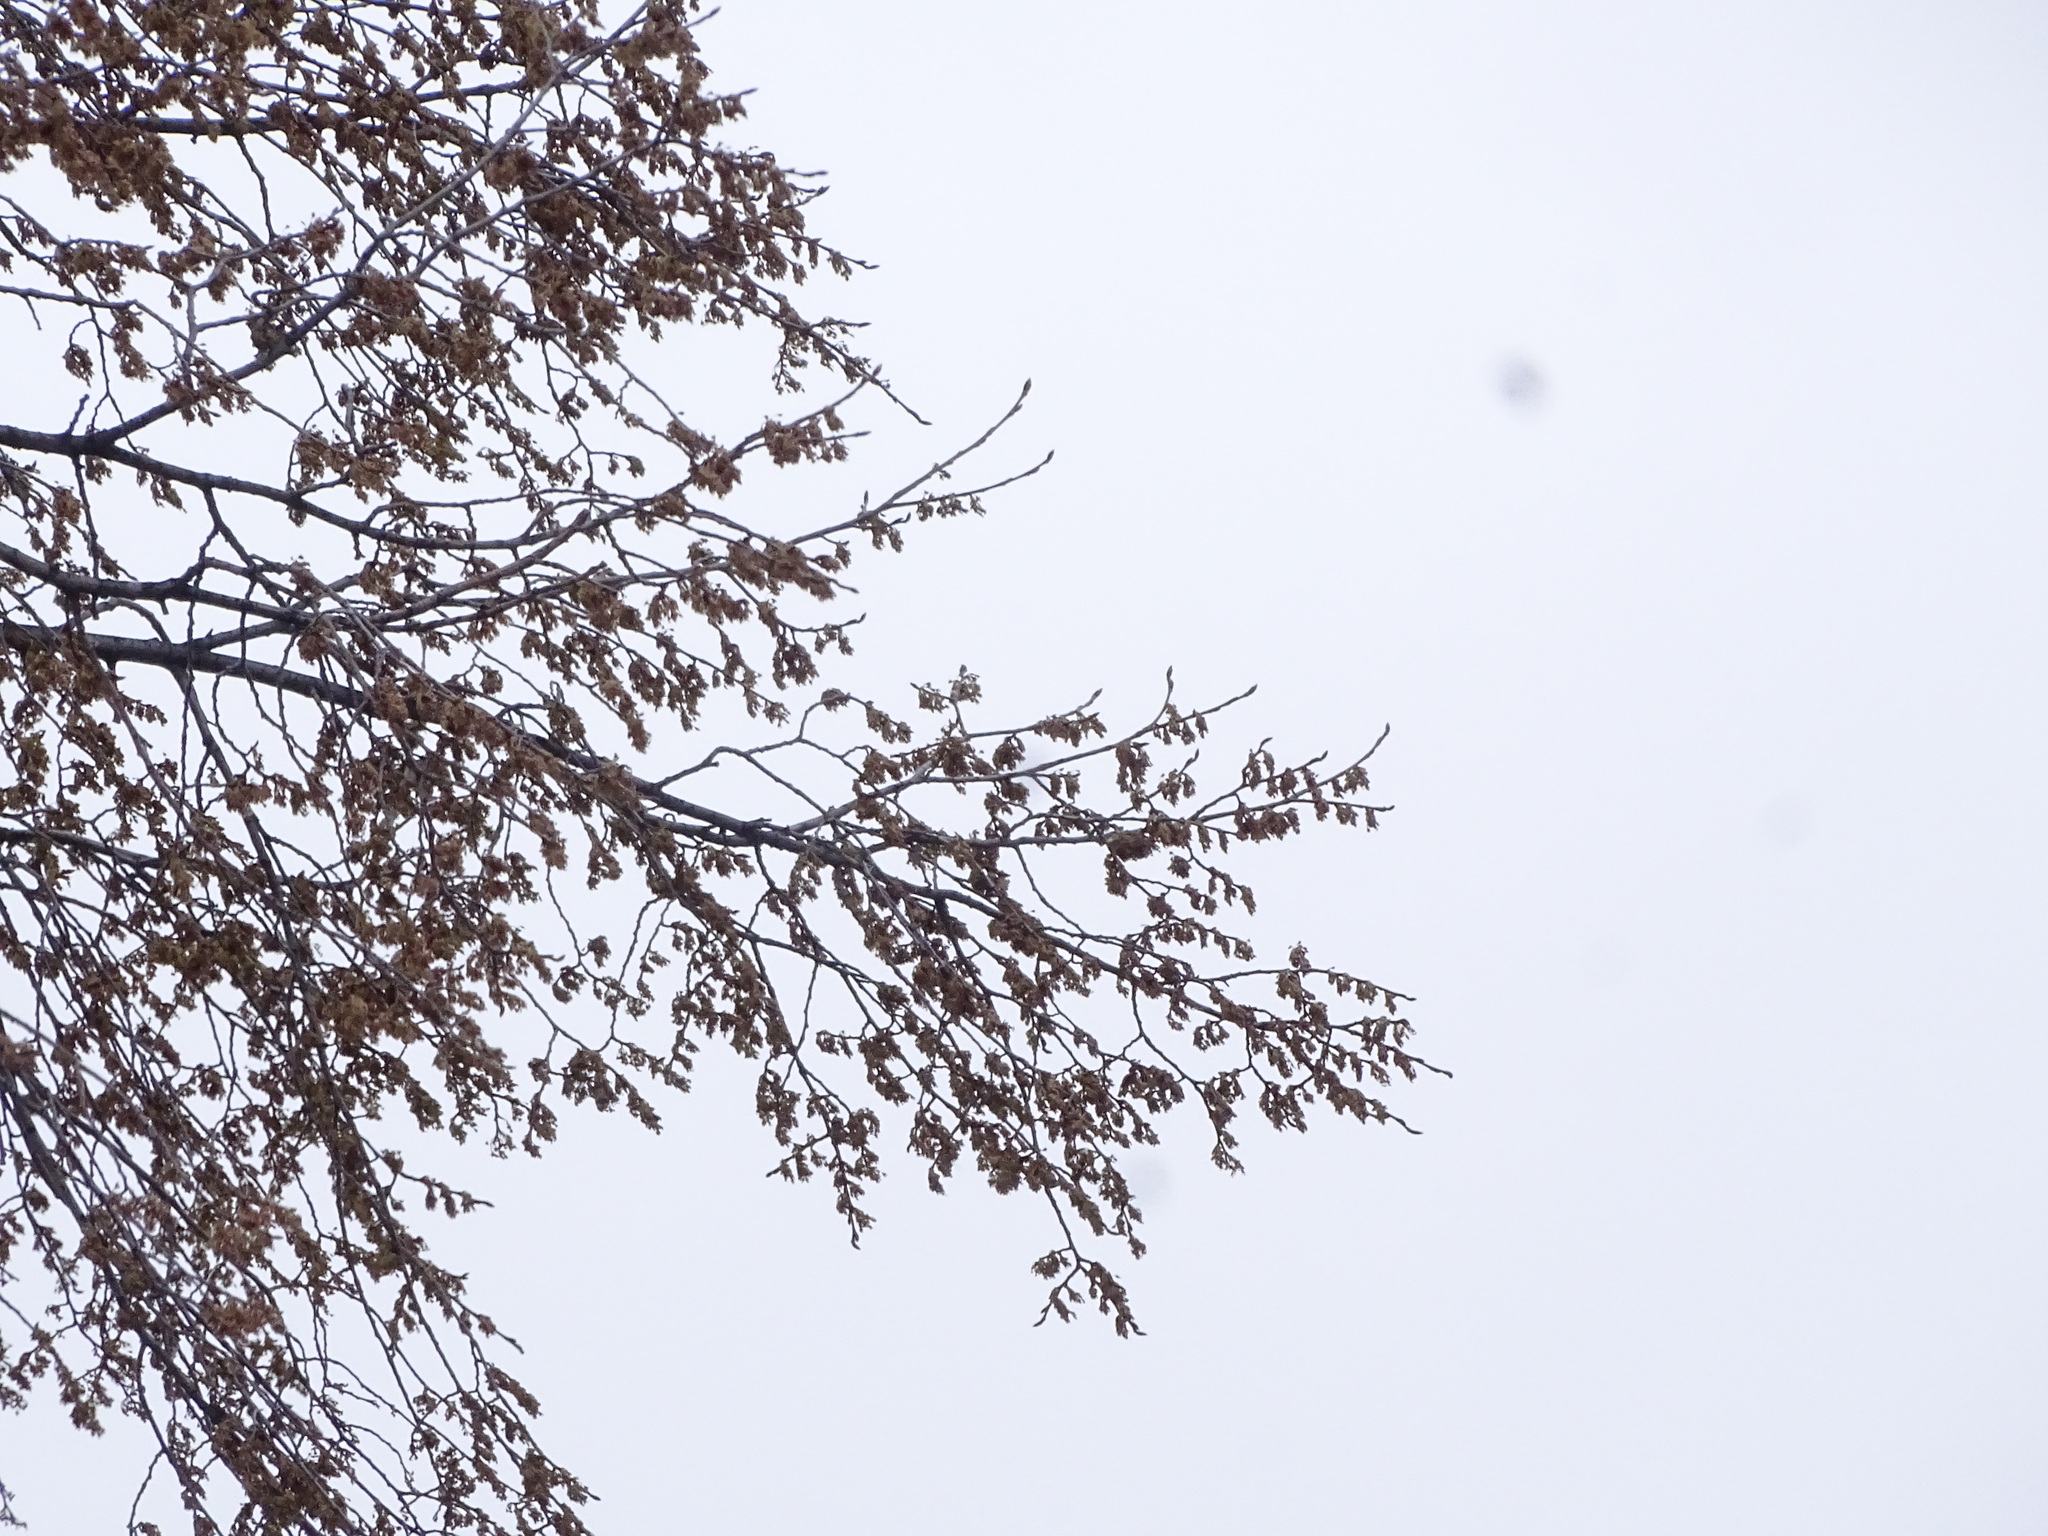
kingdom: Plantae
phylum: Tracheophyta
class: Magnoliopsida
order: Rosales
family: Ulmaceae
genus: Ulmus
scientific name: Ulmus americana
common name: American elm
